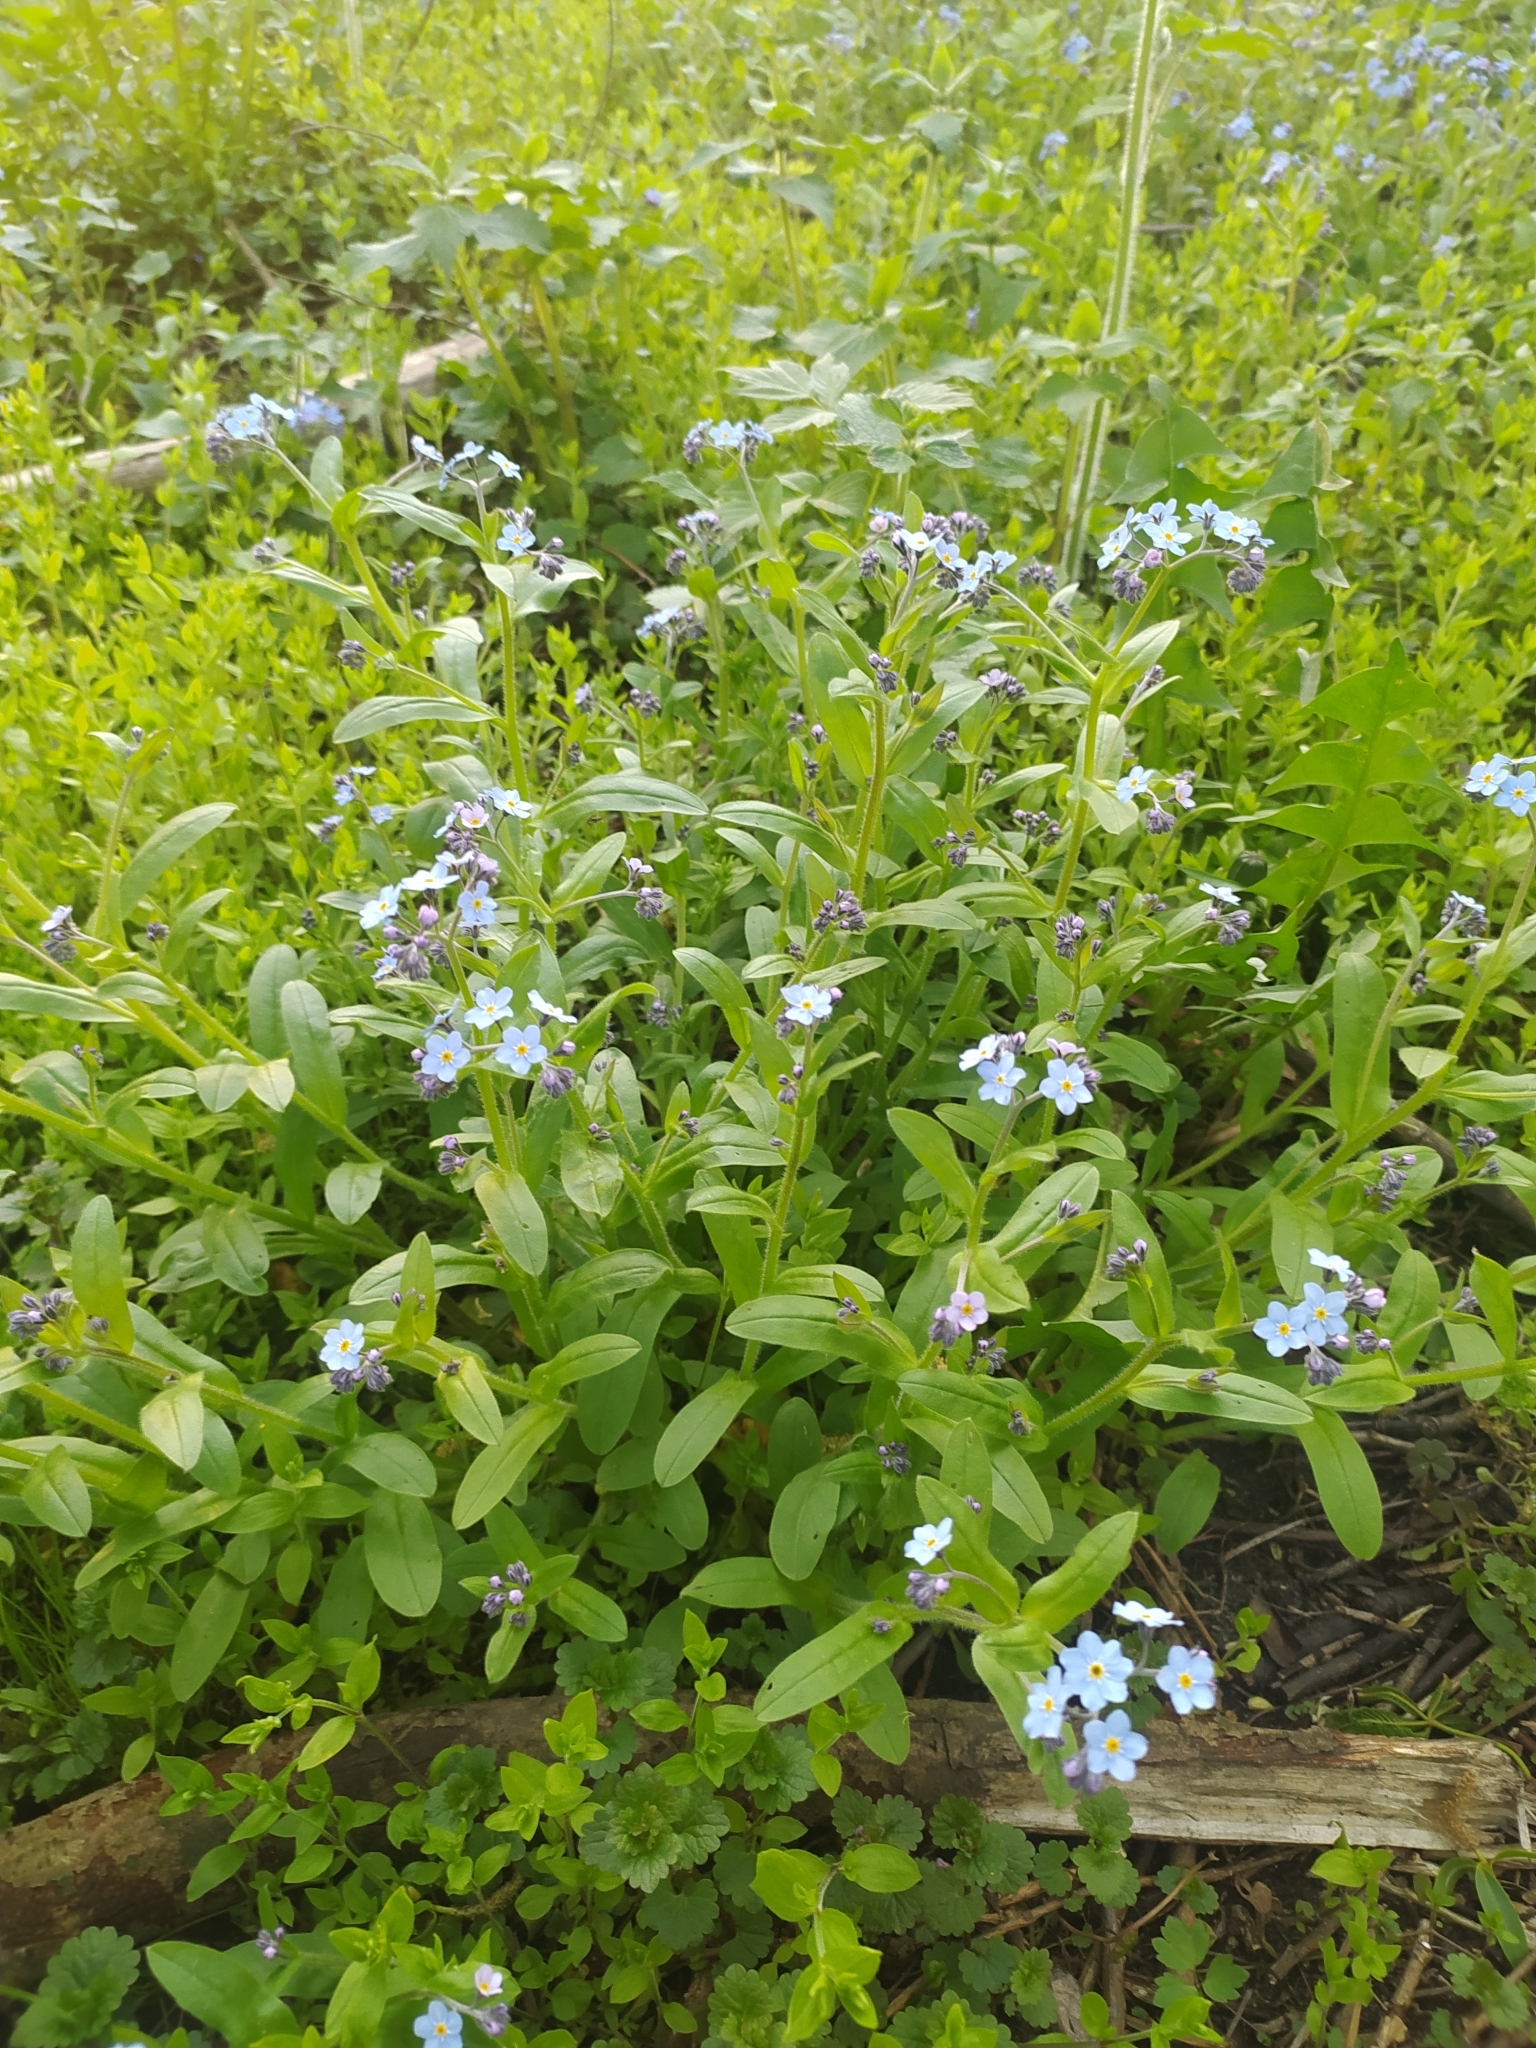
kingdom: Plantae
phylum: Tracheophyta
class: Magnoliopsida
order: Boraginales
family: Boraginaceae
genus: Myosotis
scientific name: Myosotis sylvatica
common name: Wood forget-me-not
